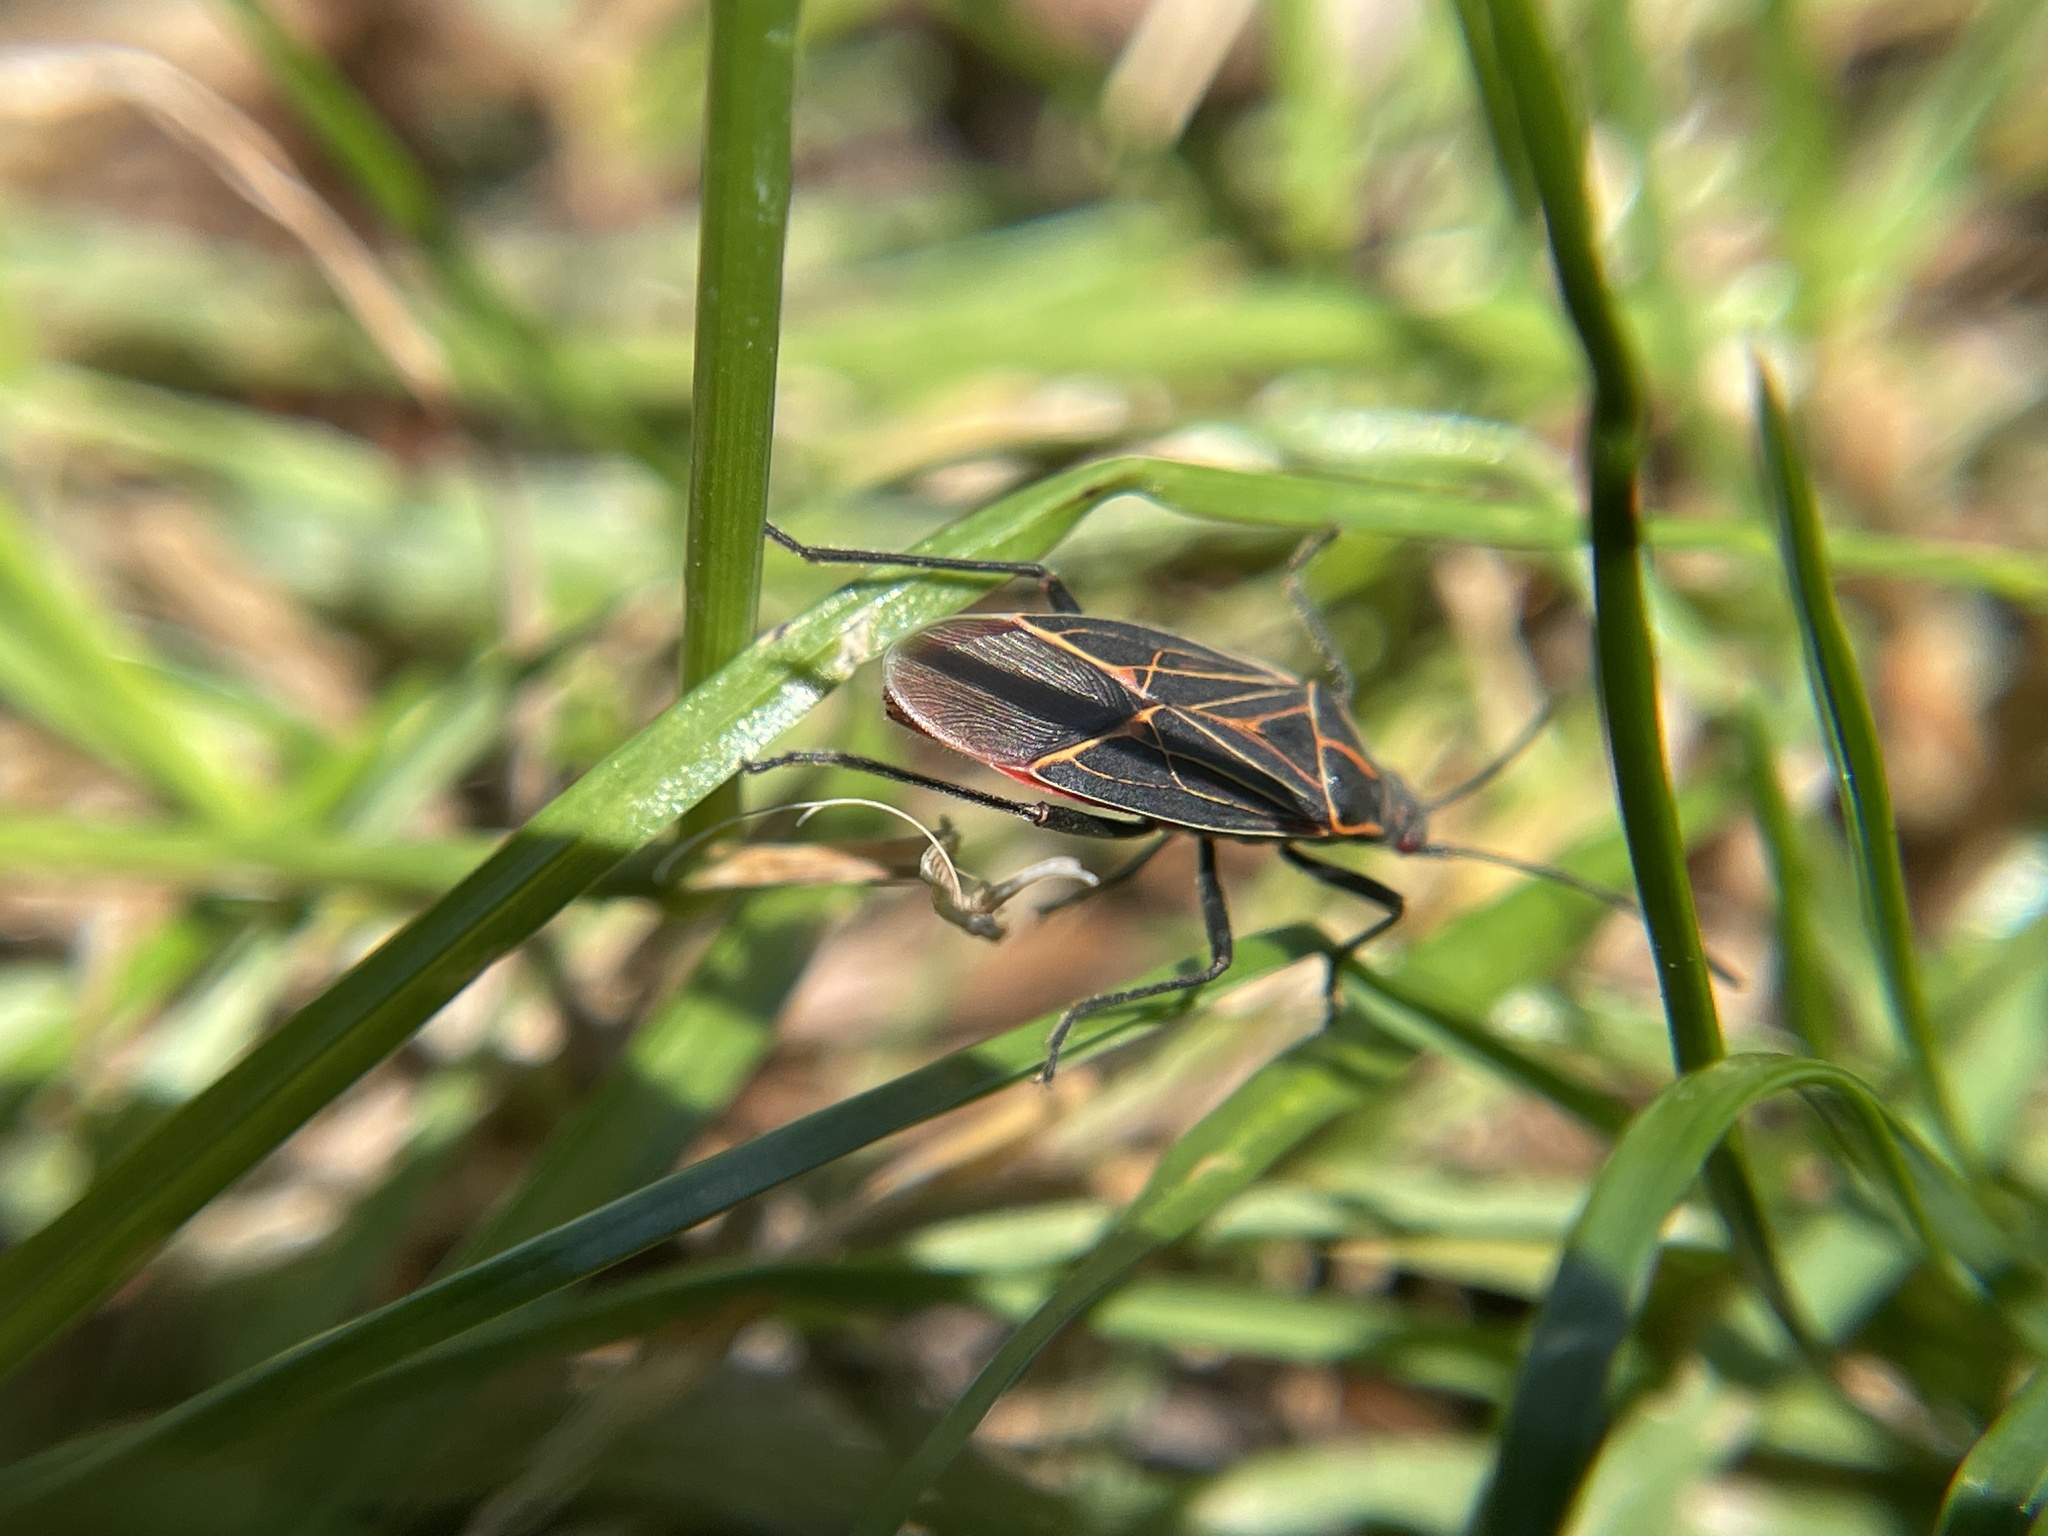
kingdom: Animalia
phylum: Arthropoda
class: Insecta
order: Hemiptera
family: Rhopalidae
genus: Boisea
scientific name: Boisea rubrolineata
